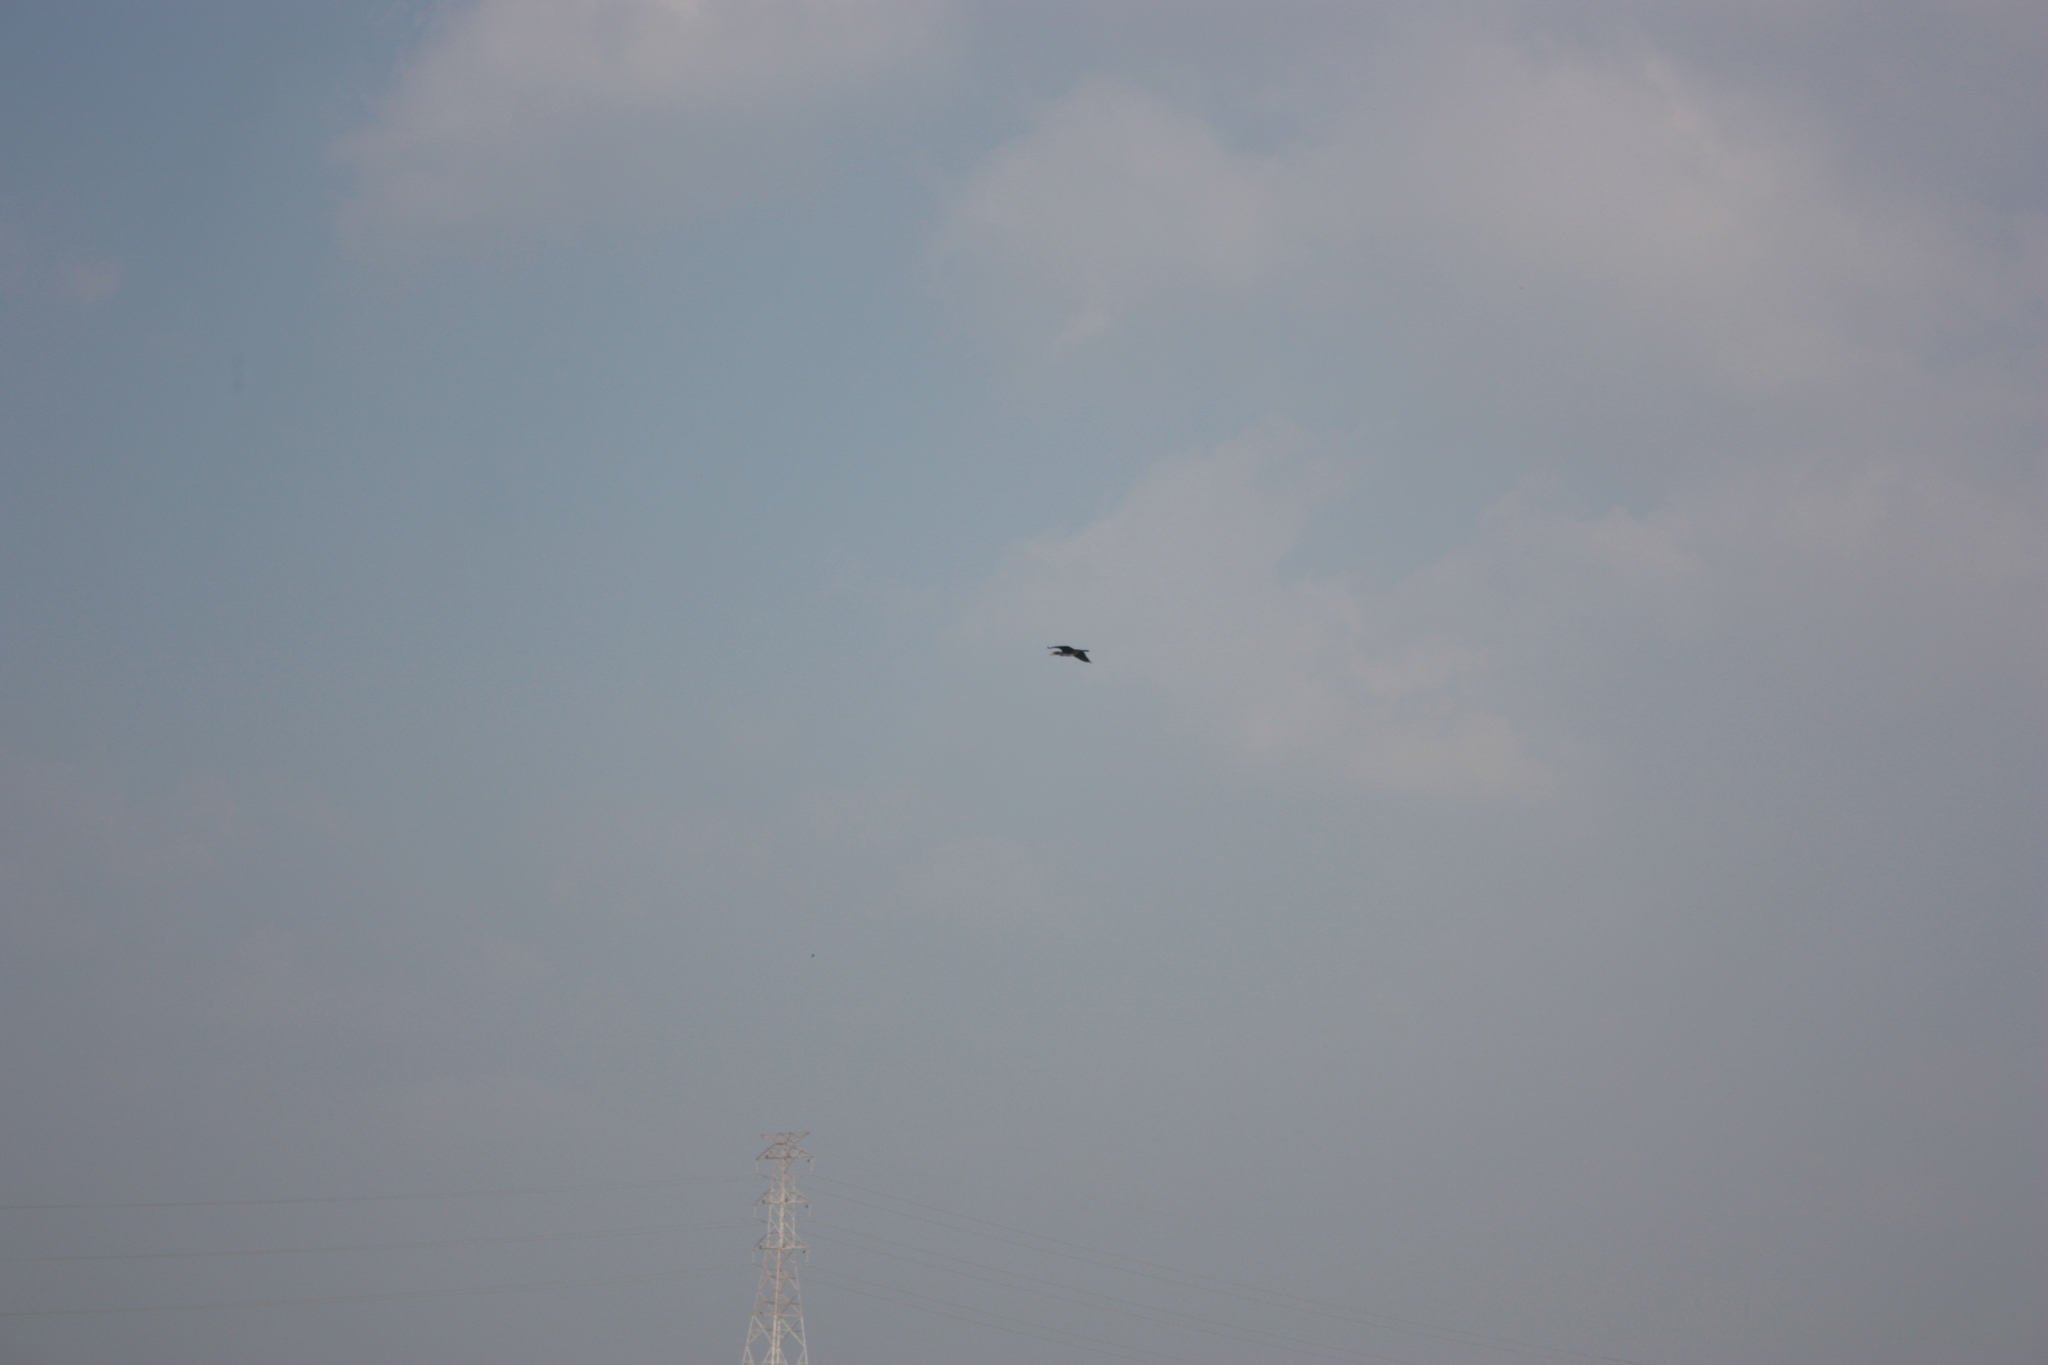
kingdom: Animalia
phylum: Chordata
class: Aves
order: Suliformes
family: Phalacrocoracidae
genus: Phalacrocorax
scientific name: Phalacrocorax carbo
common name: Great cormorant
